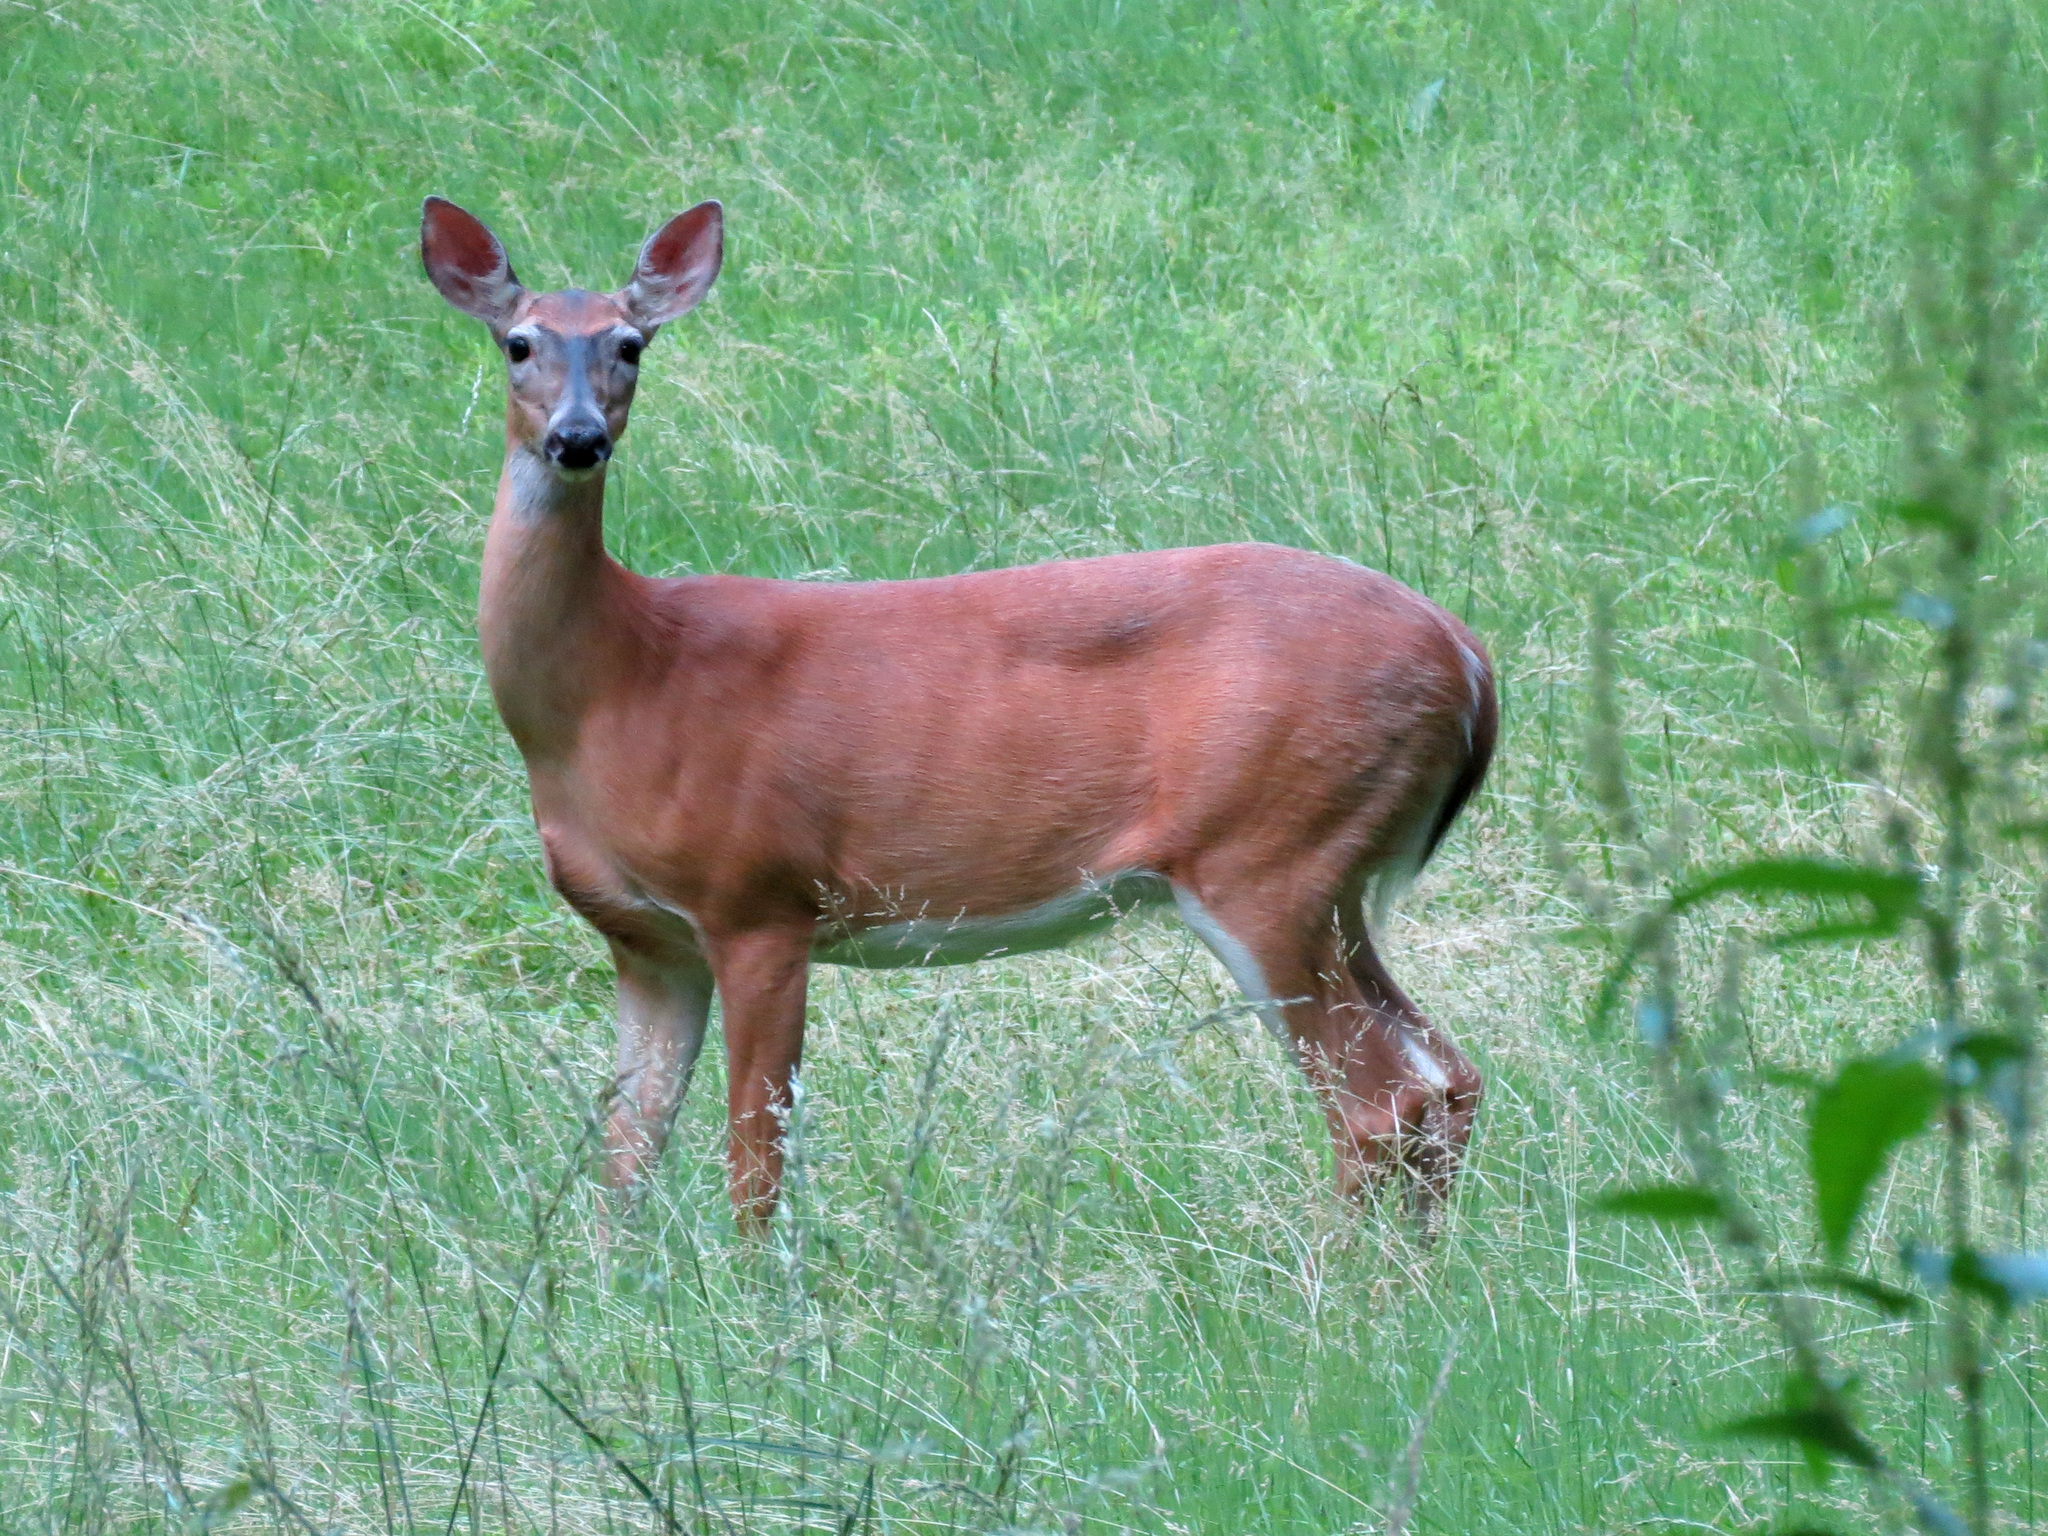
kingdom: Animalia
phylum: Chordata
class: Mammalia
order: Artiodactyla
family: Cervidae
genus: Odocoileus
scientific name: Odocoileus virginianus
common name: White-tailed deer
